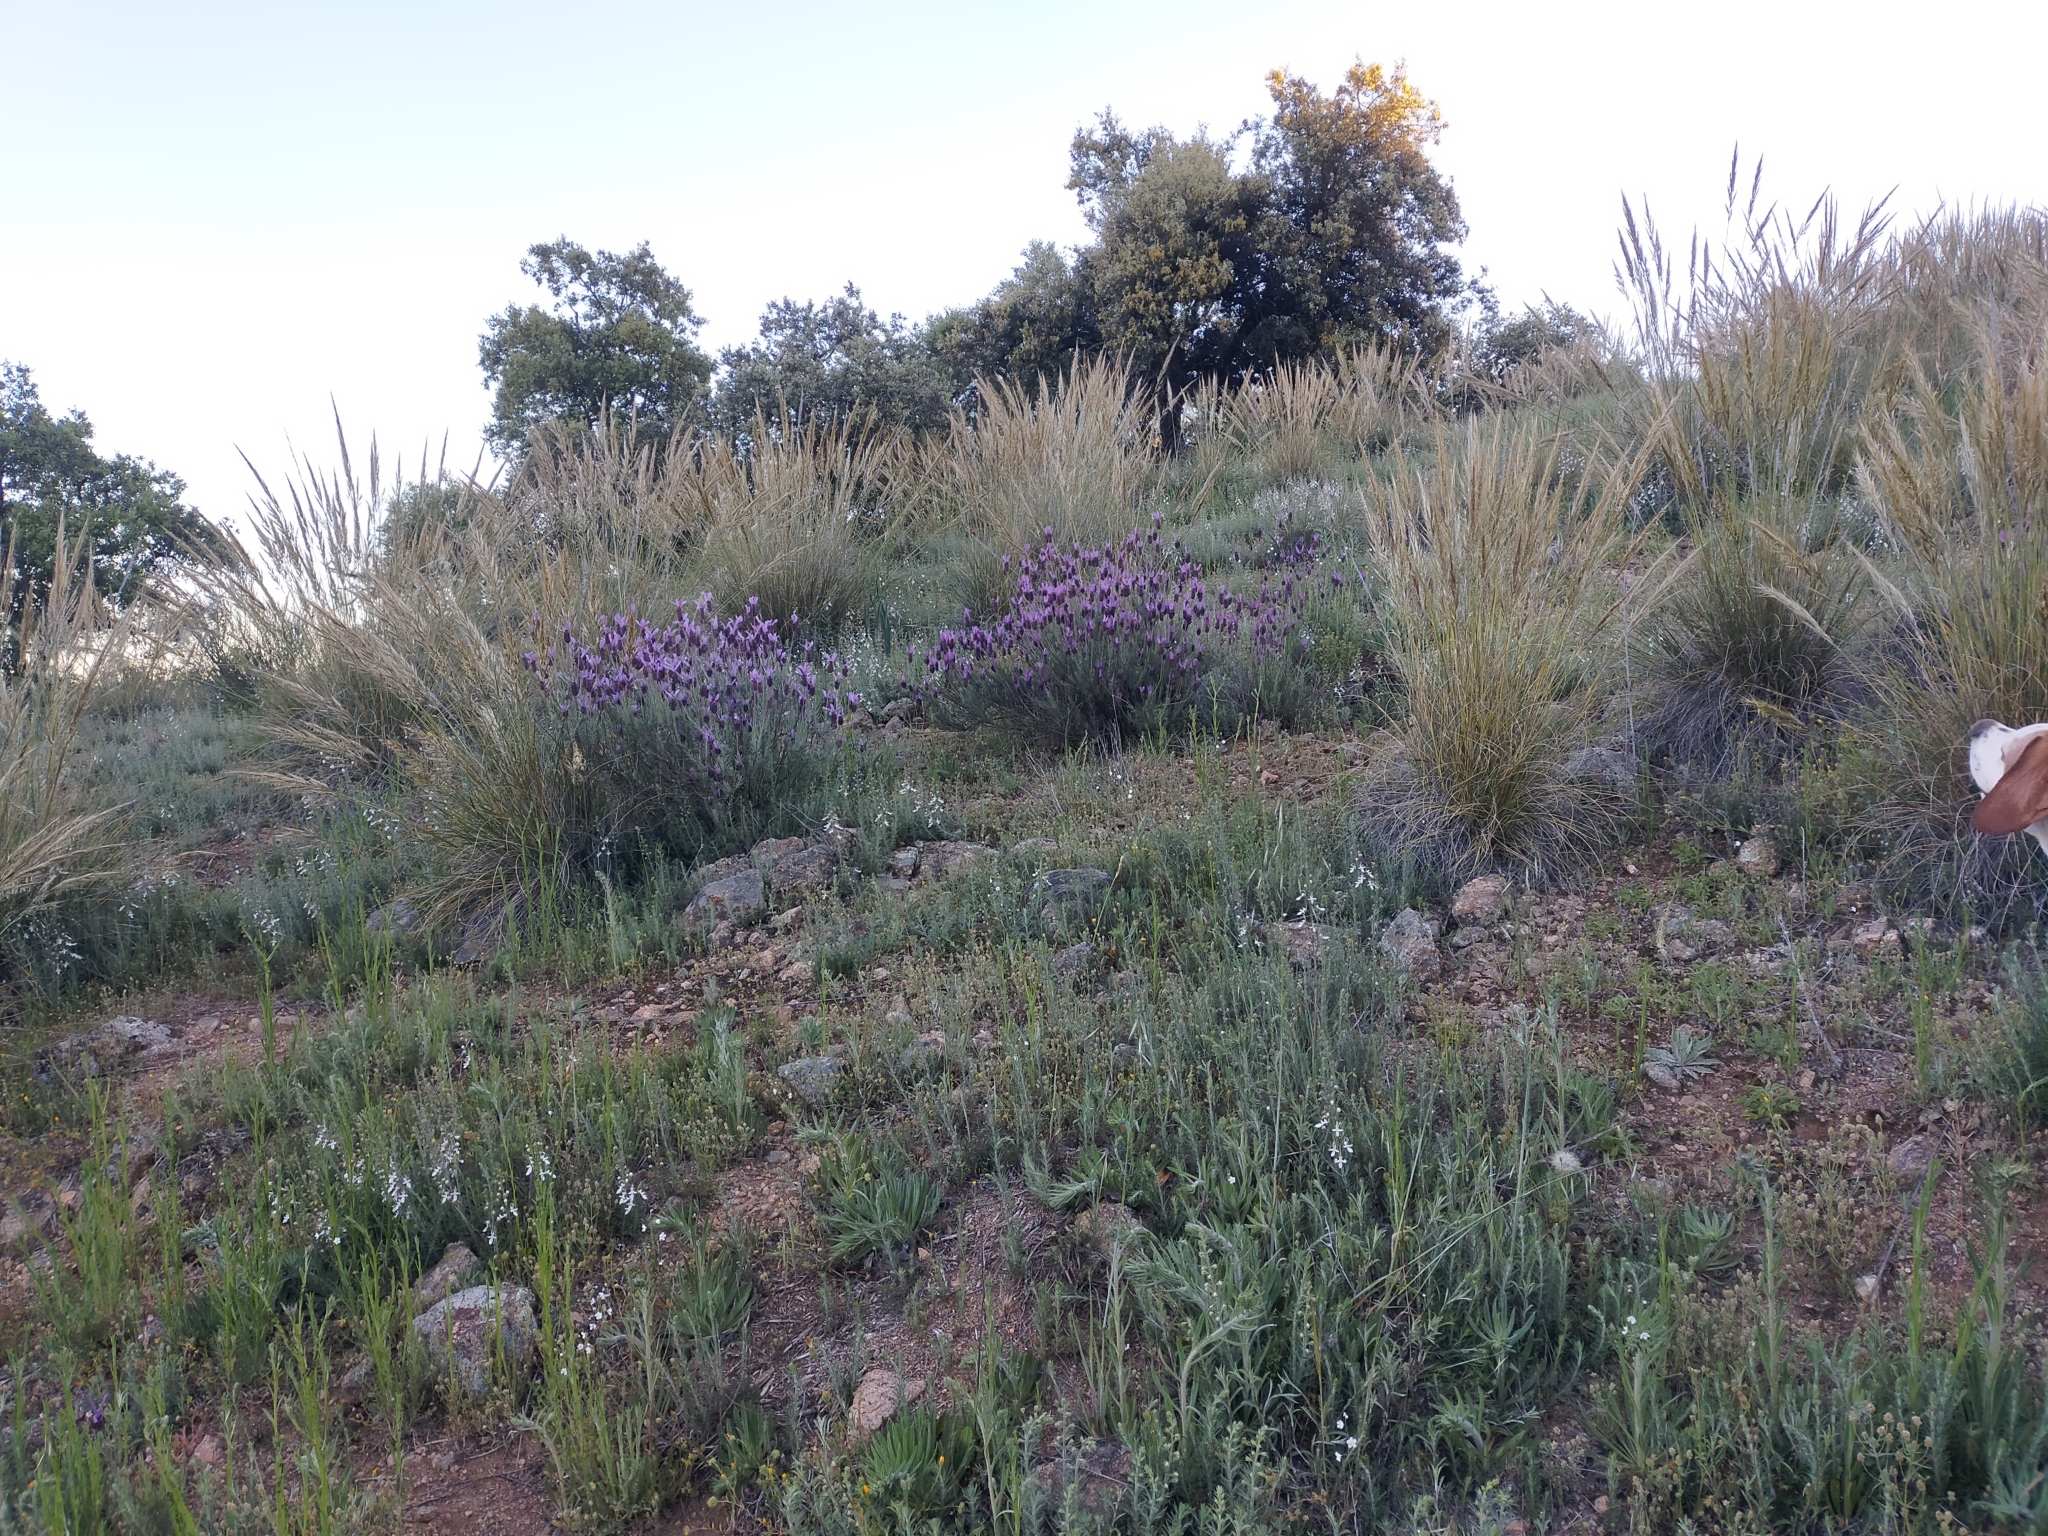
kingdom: Plantae
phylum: Tracheophyta
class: Magnoliopsida
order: Lamiales
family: Lamiaceae
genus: Lavandula
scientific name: Lavandula pedunculata
